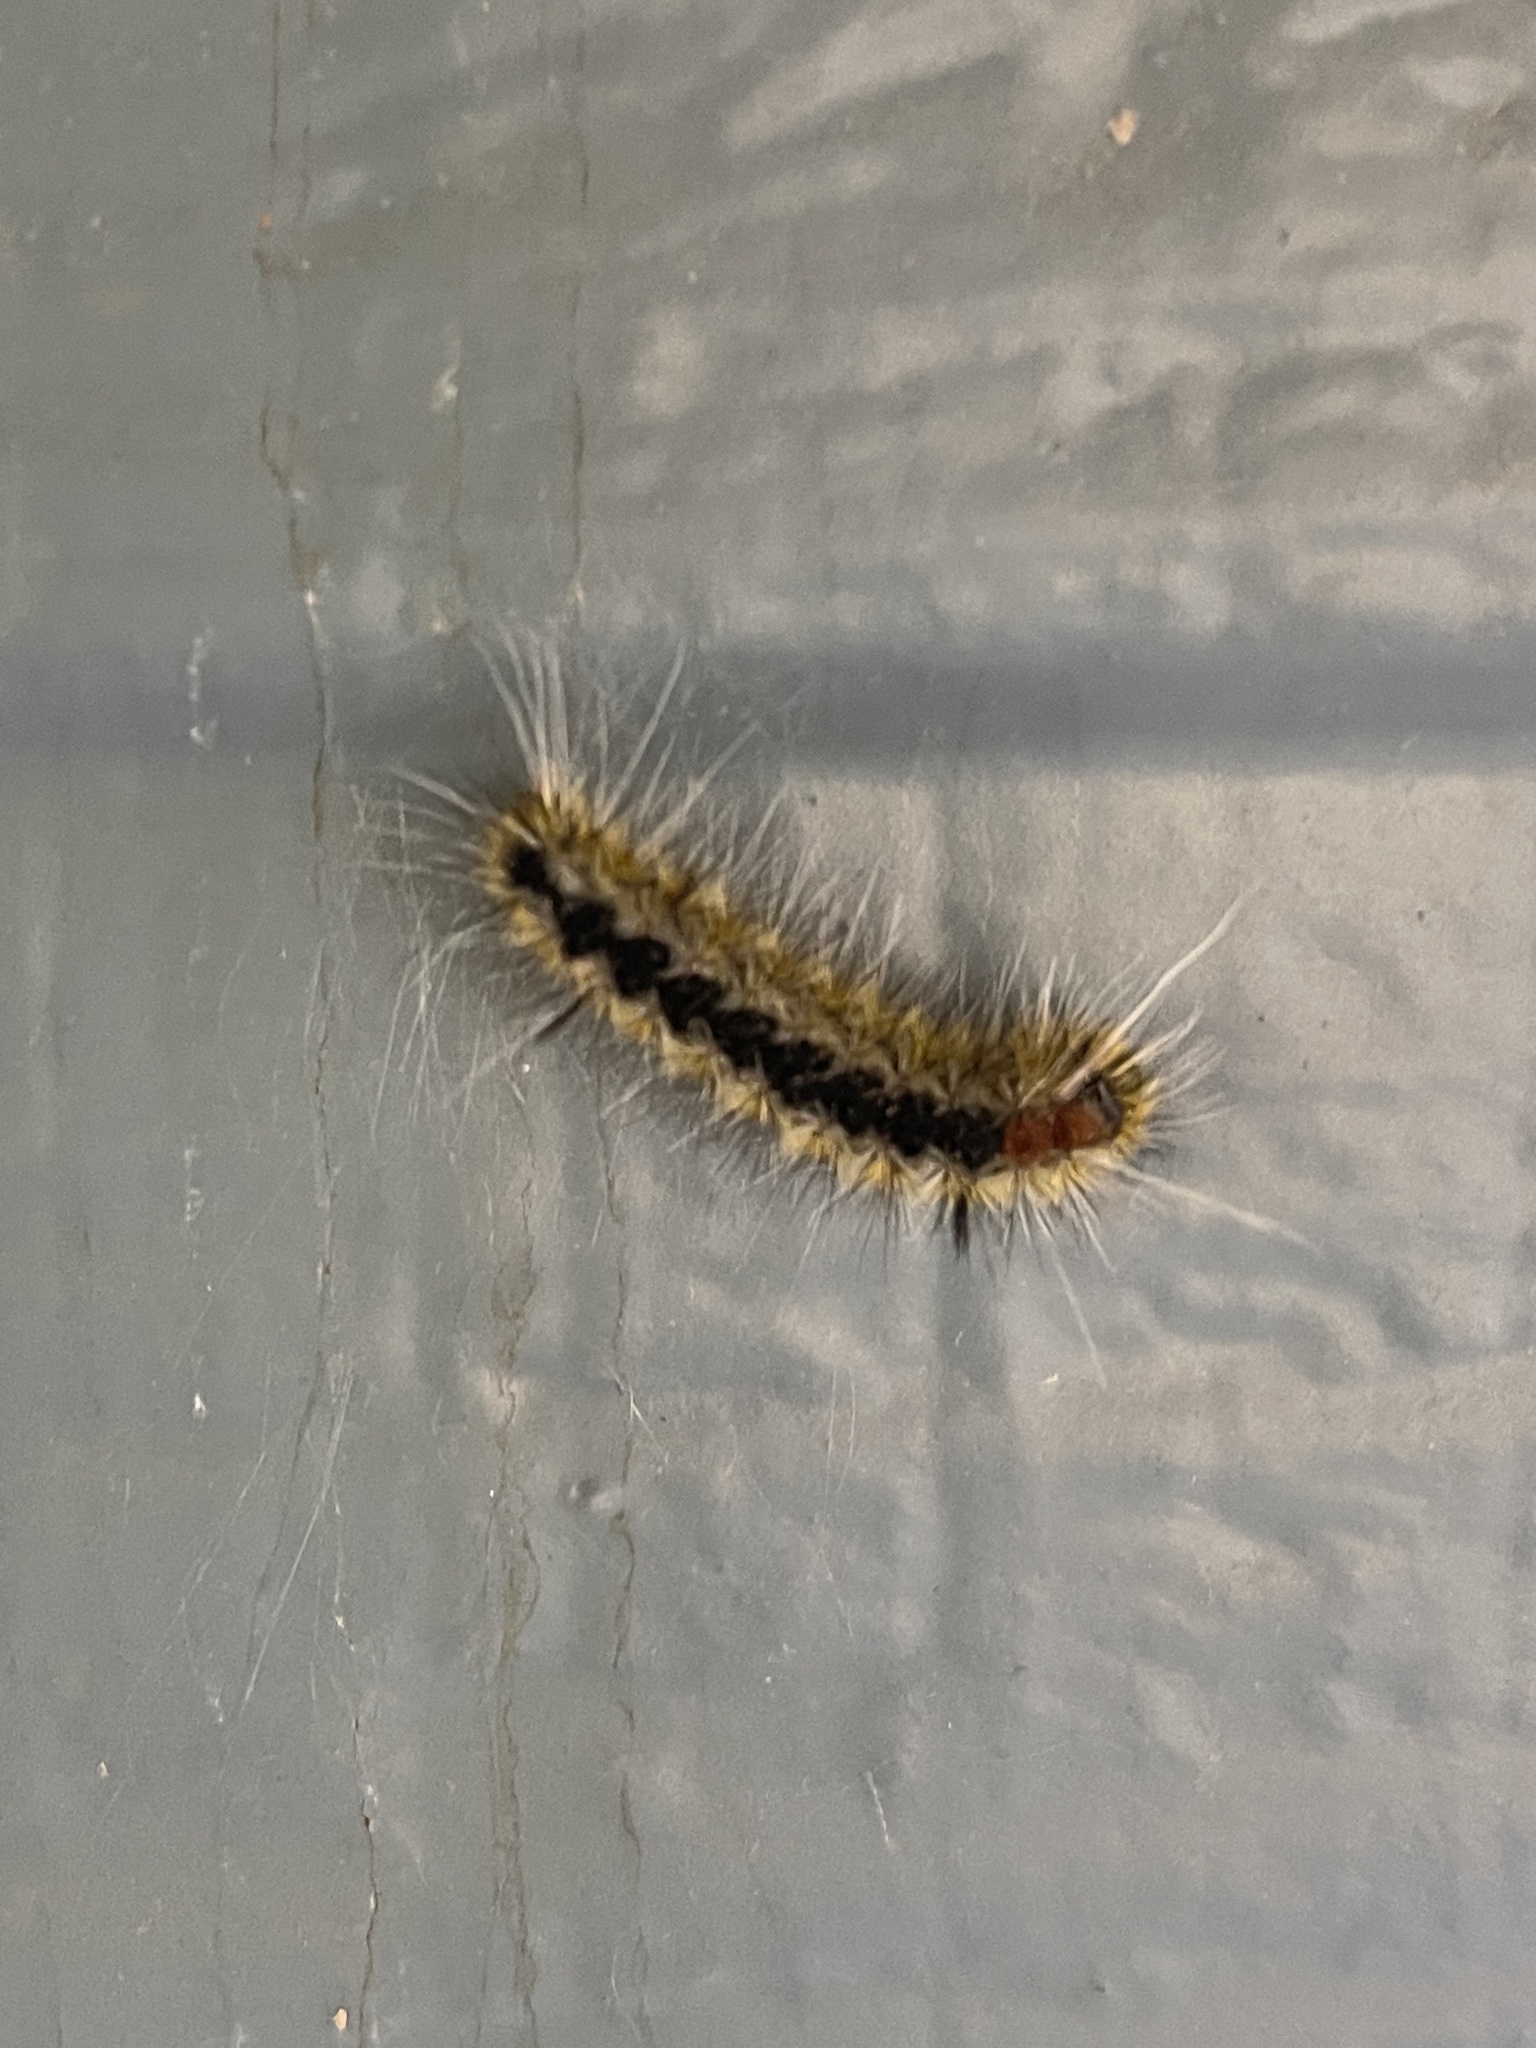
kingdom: Animalia
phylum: Arthropoda
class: Insecta
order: Lepidoptera
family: Erebidae
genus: Lophocampa
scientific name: Lophocampa ingens
